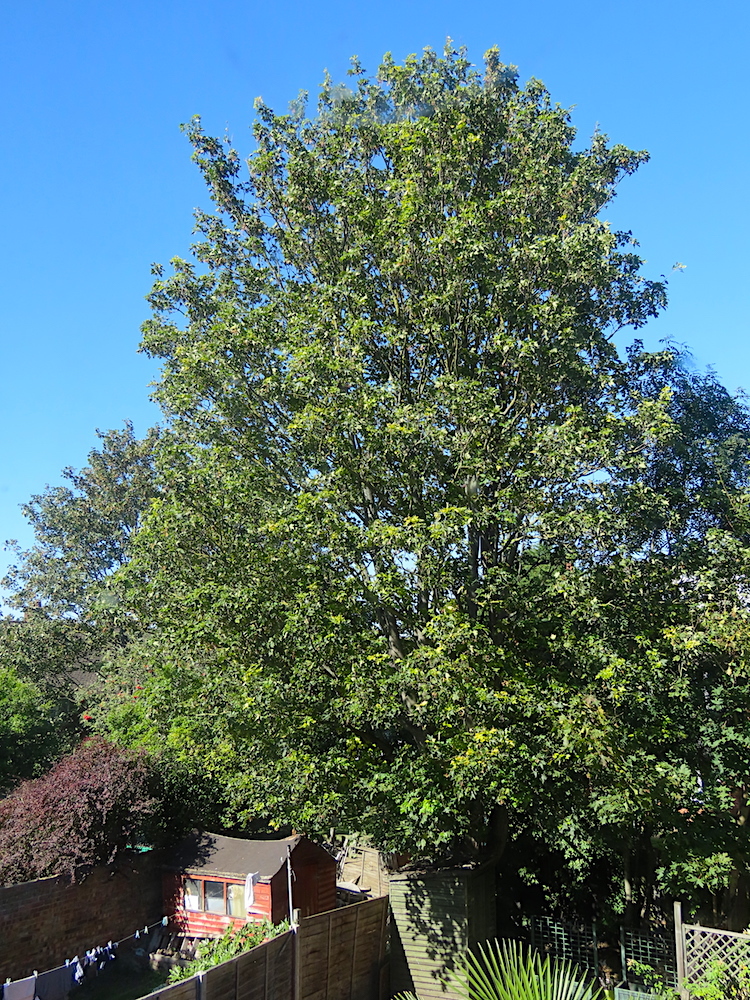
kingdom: Plantae
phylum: Tracheophyta
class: Magnoliopsida
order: Sapindales
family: Sapindaceae
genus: Acer
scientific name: Acer pseudoplatanus
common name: Sycamore
